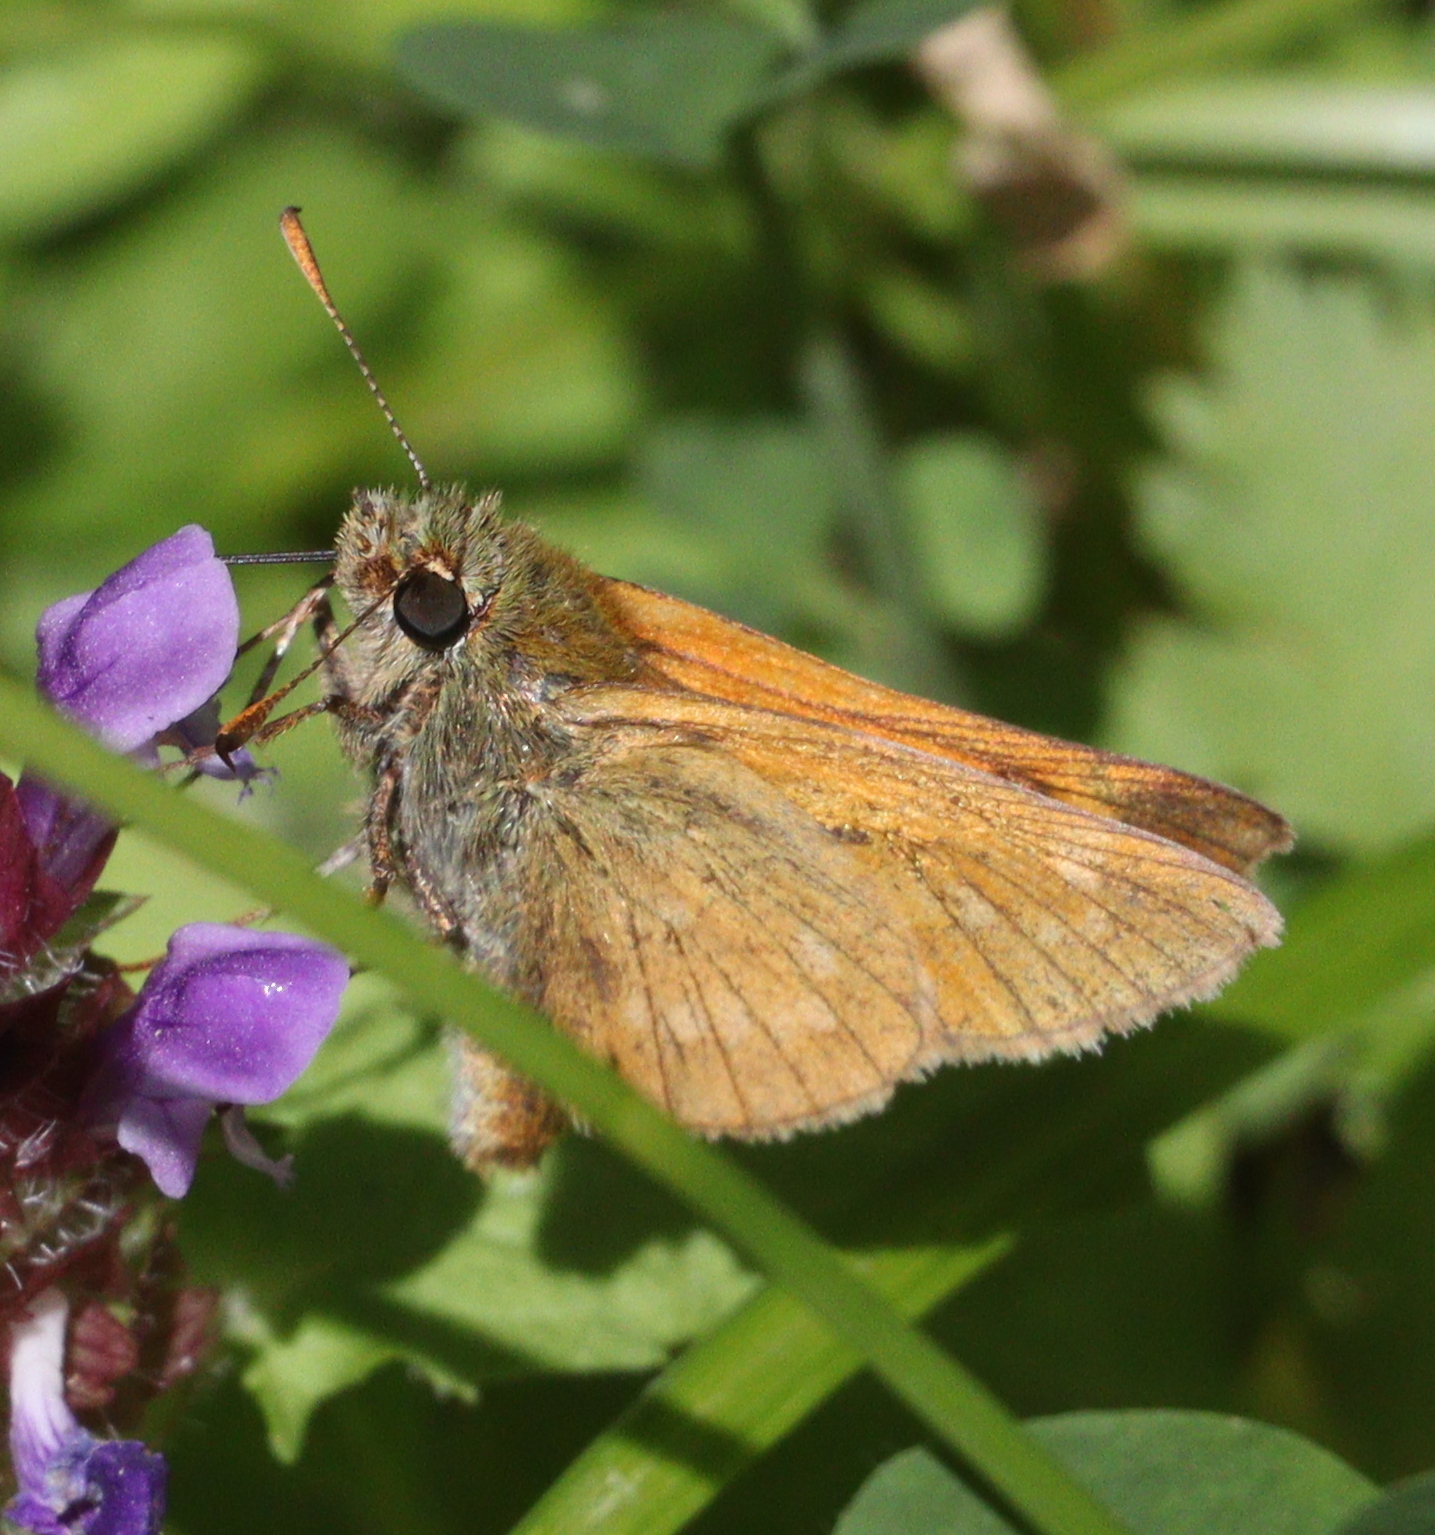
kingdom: Animalia
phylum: Arthropoda
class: Insecta
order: Lepidoptera
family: Hesperiidae
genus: Ochlodes
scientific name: Ochlodes venata
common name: Large skipper
